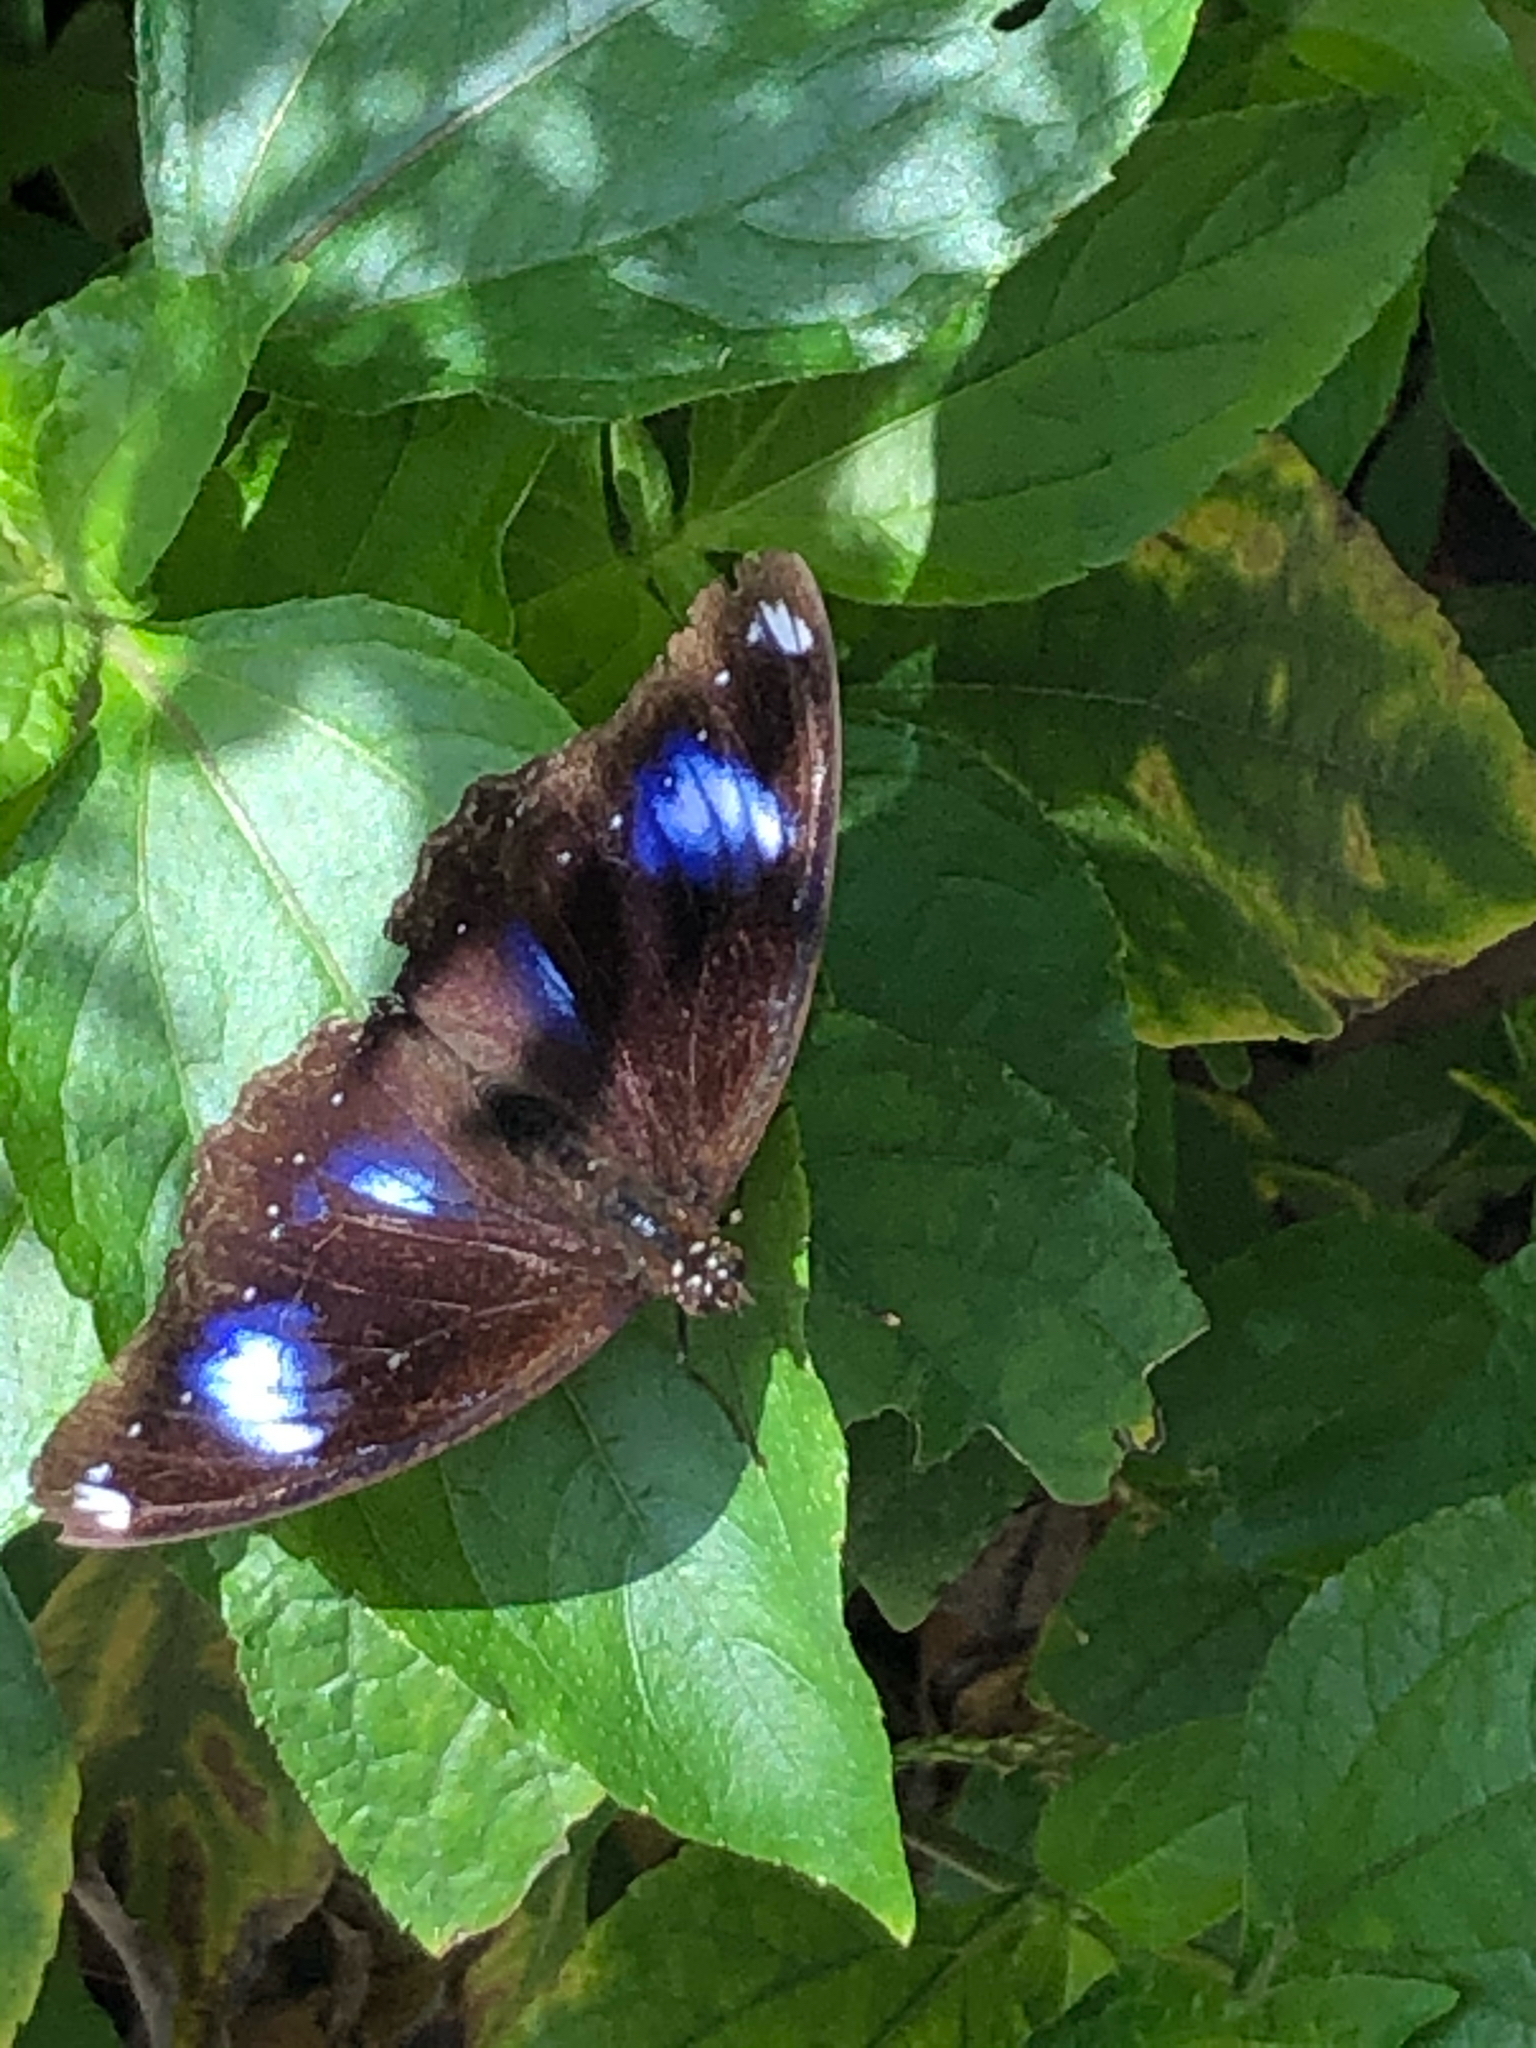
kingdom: Animalia
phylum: Arthropoda
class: Insecta
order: Lepidoptera
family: Nymphalidae
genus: Hypolimnas
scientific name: Hypolimnas bolina
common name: Great eggfly
